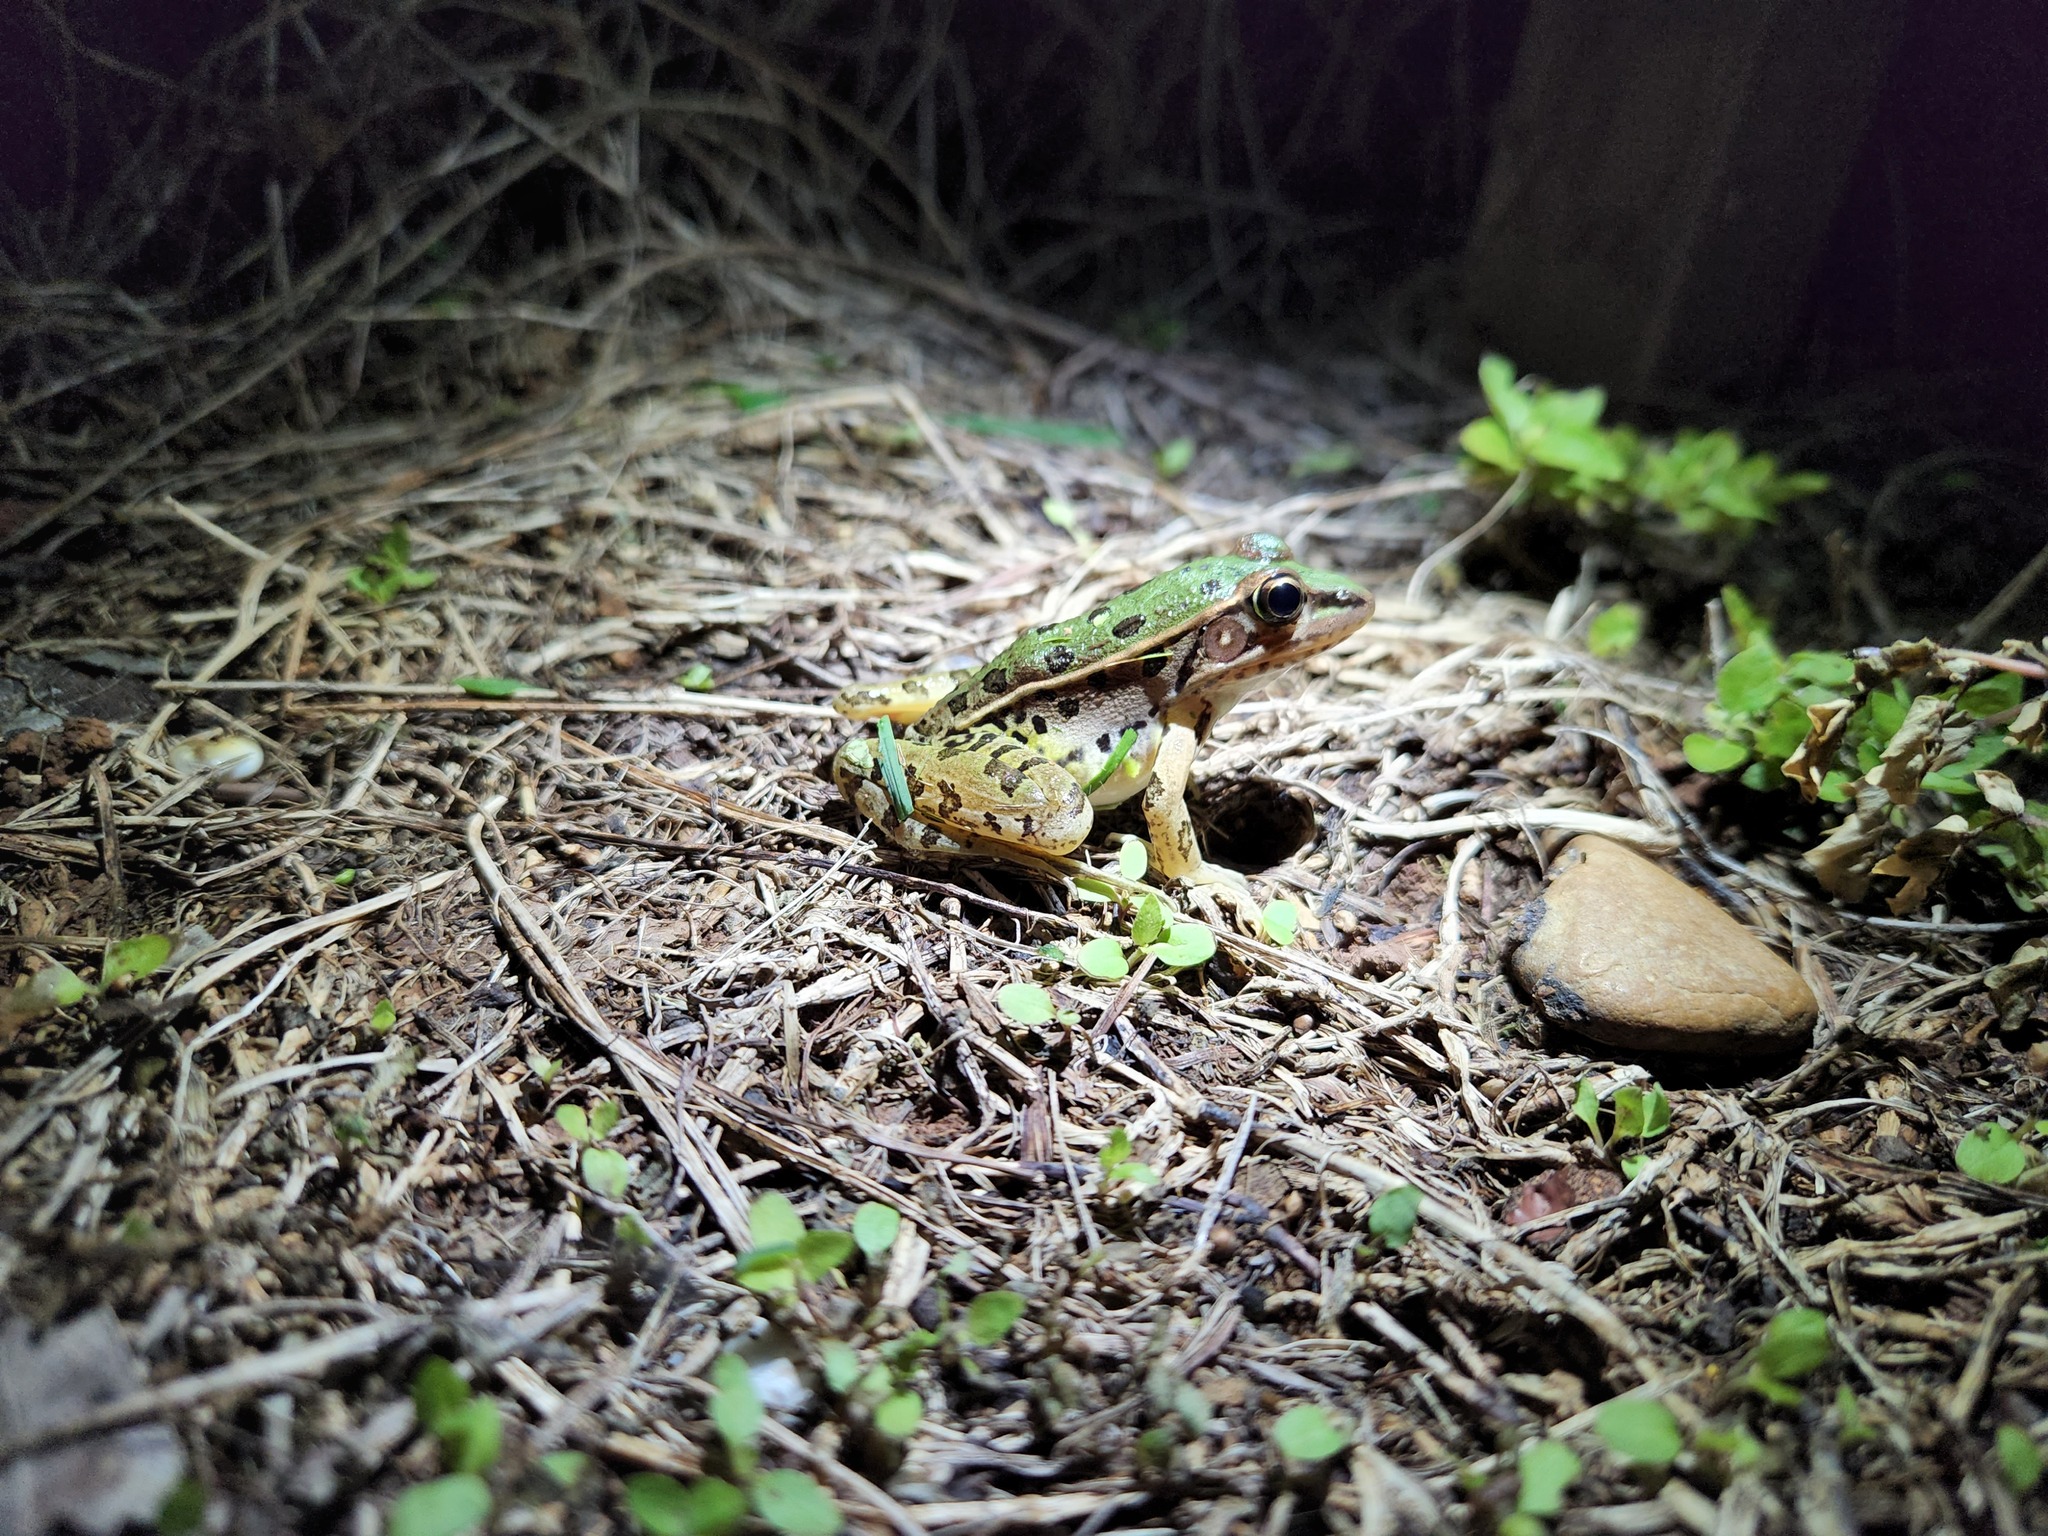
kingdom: Animalia
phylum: Chordata
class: Amphibia
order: Anura
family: Ranidae
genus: Lithobates
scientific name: Lithobates sphenocephalus
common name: Southern leopard frog
